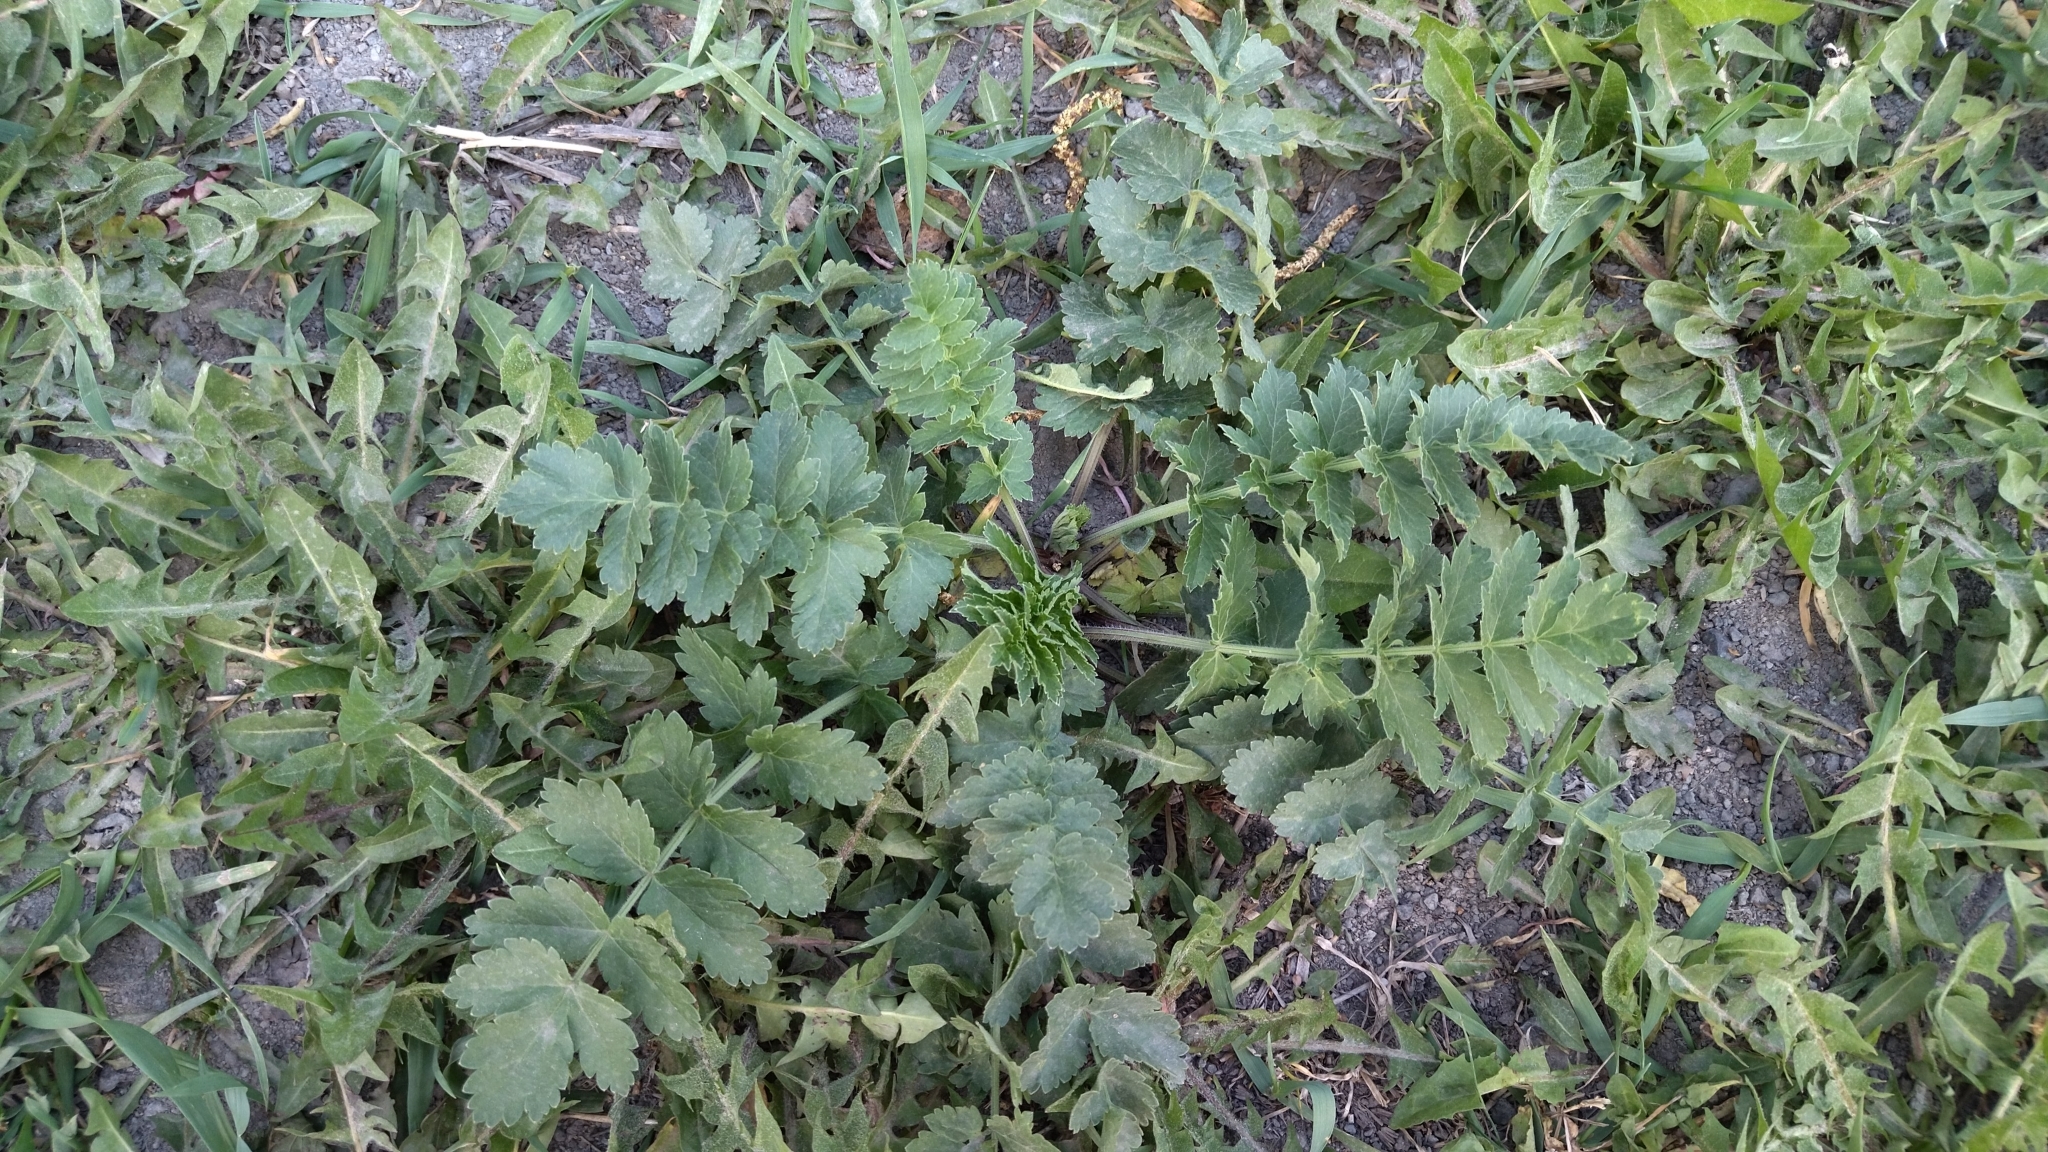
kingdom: Plantae
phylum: Tracheophyta
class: Magnoliopsida
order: Apiales
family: Apiaceae
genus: Pastinaca
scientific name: Pastinaca sativa
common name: Wild parsnip
